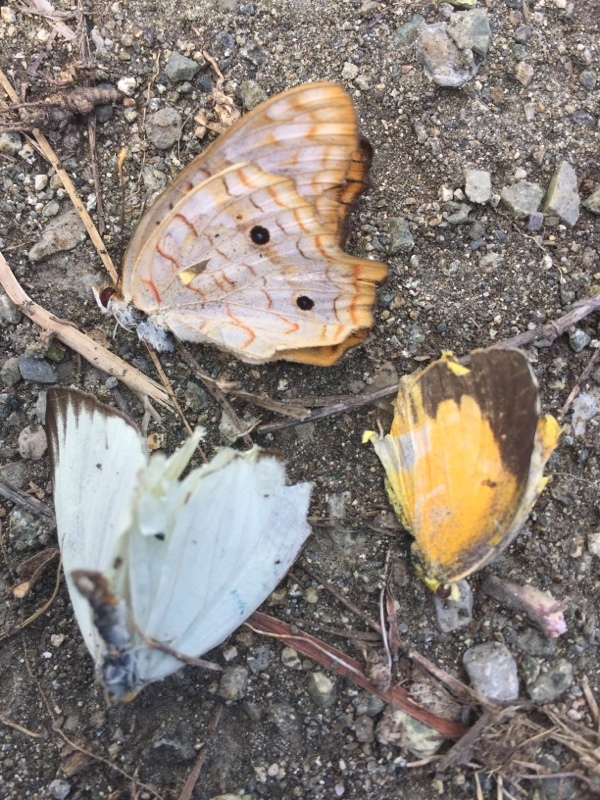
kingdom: Animalia
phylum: Arthropoda
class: Insecta
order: Lepidoptera
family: Pieridae
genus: Ascia
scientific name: Ascia monuste
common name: Great southern white
